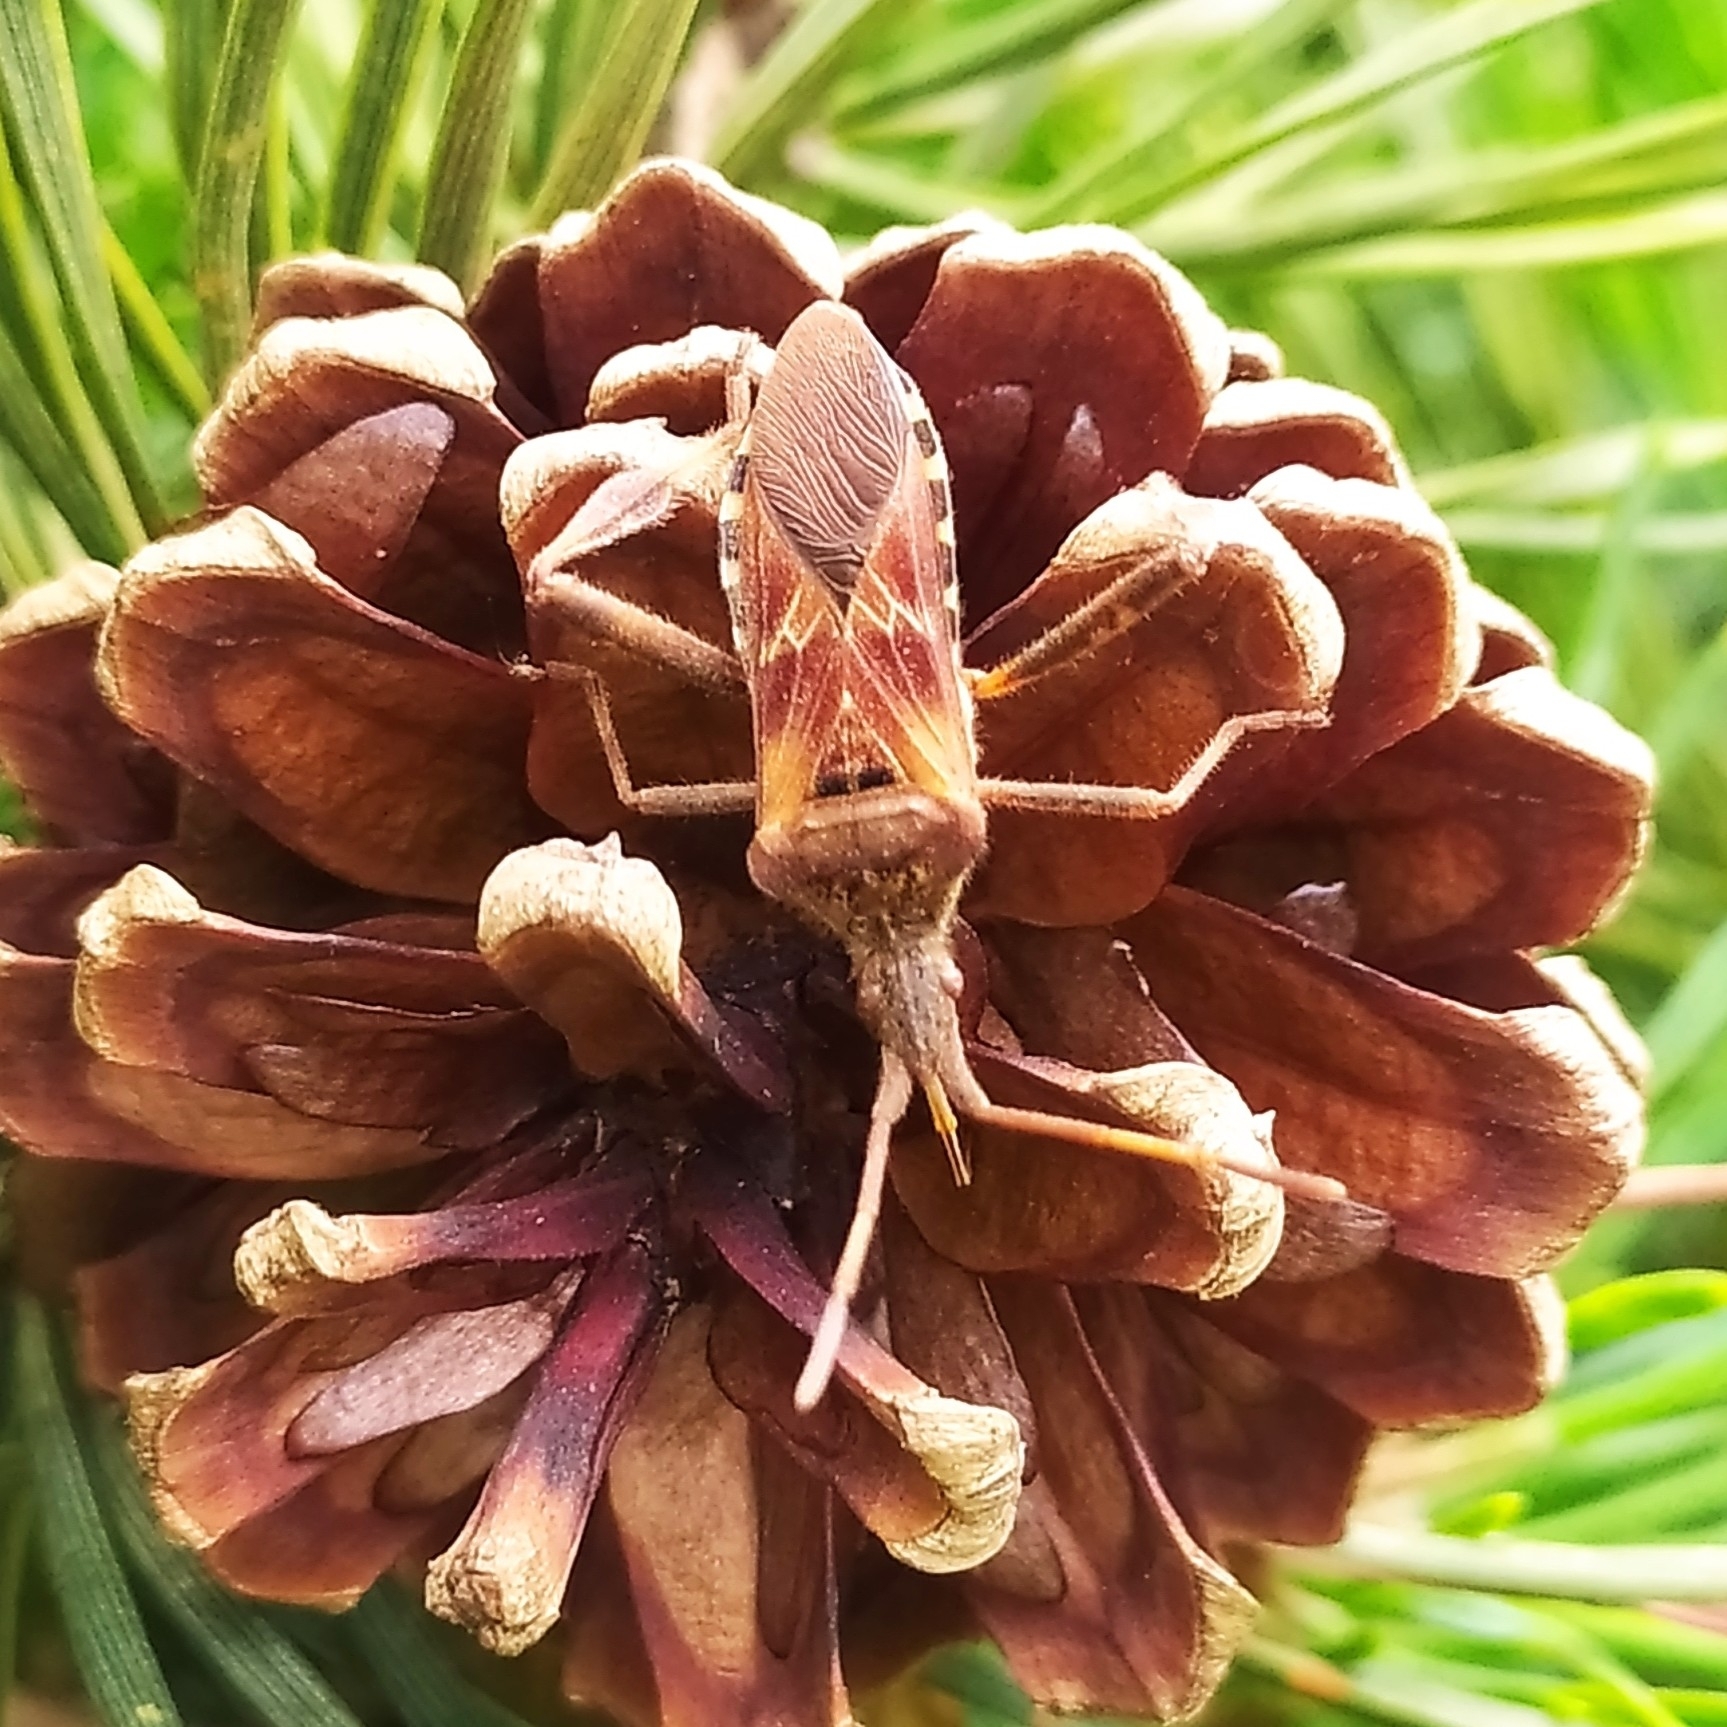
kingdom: Animalia
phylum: Arthropoda
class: Insecta
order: Hemiptera
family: Coreidae
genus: Leptoglossus
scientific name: Leptoglossus occidentalis
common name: Western conifer-seed bug
